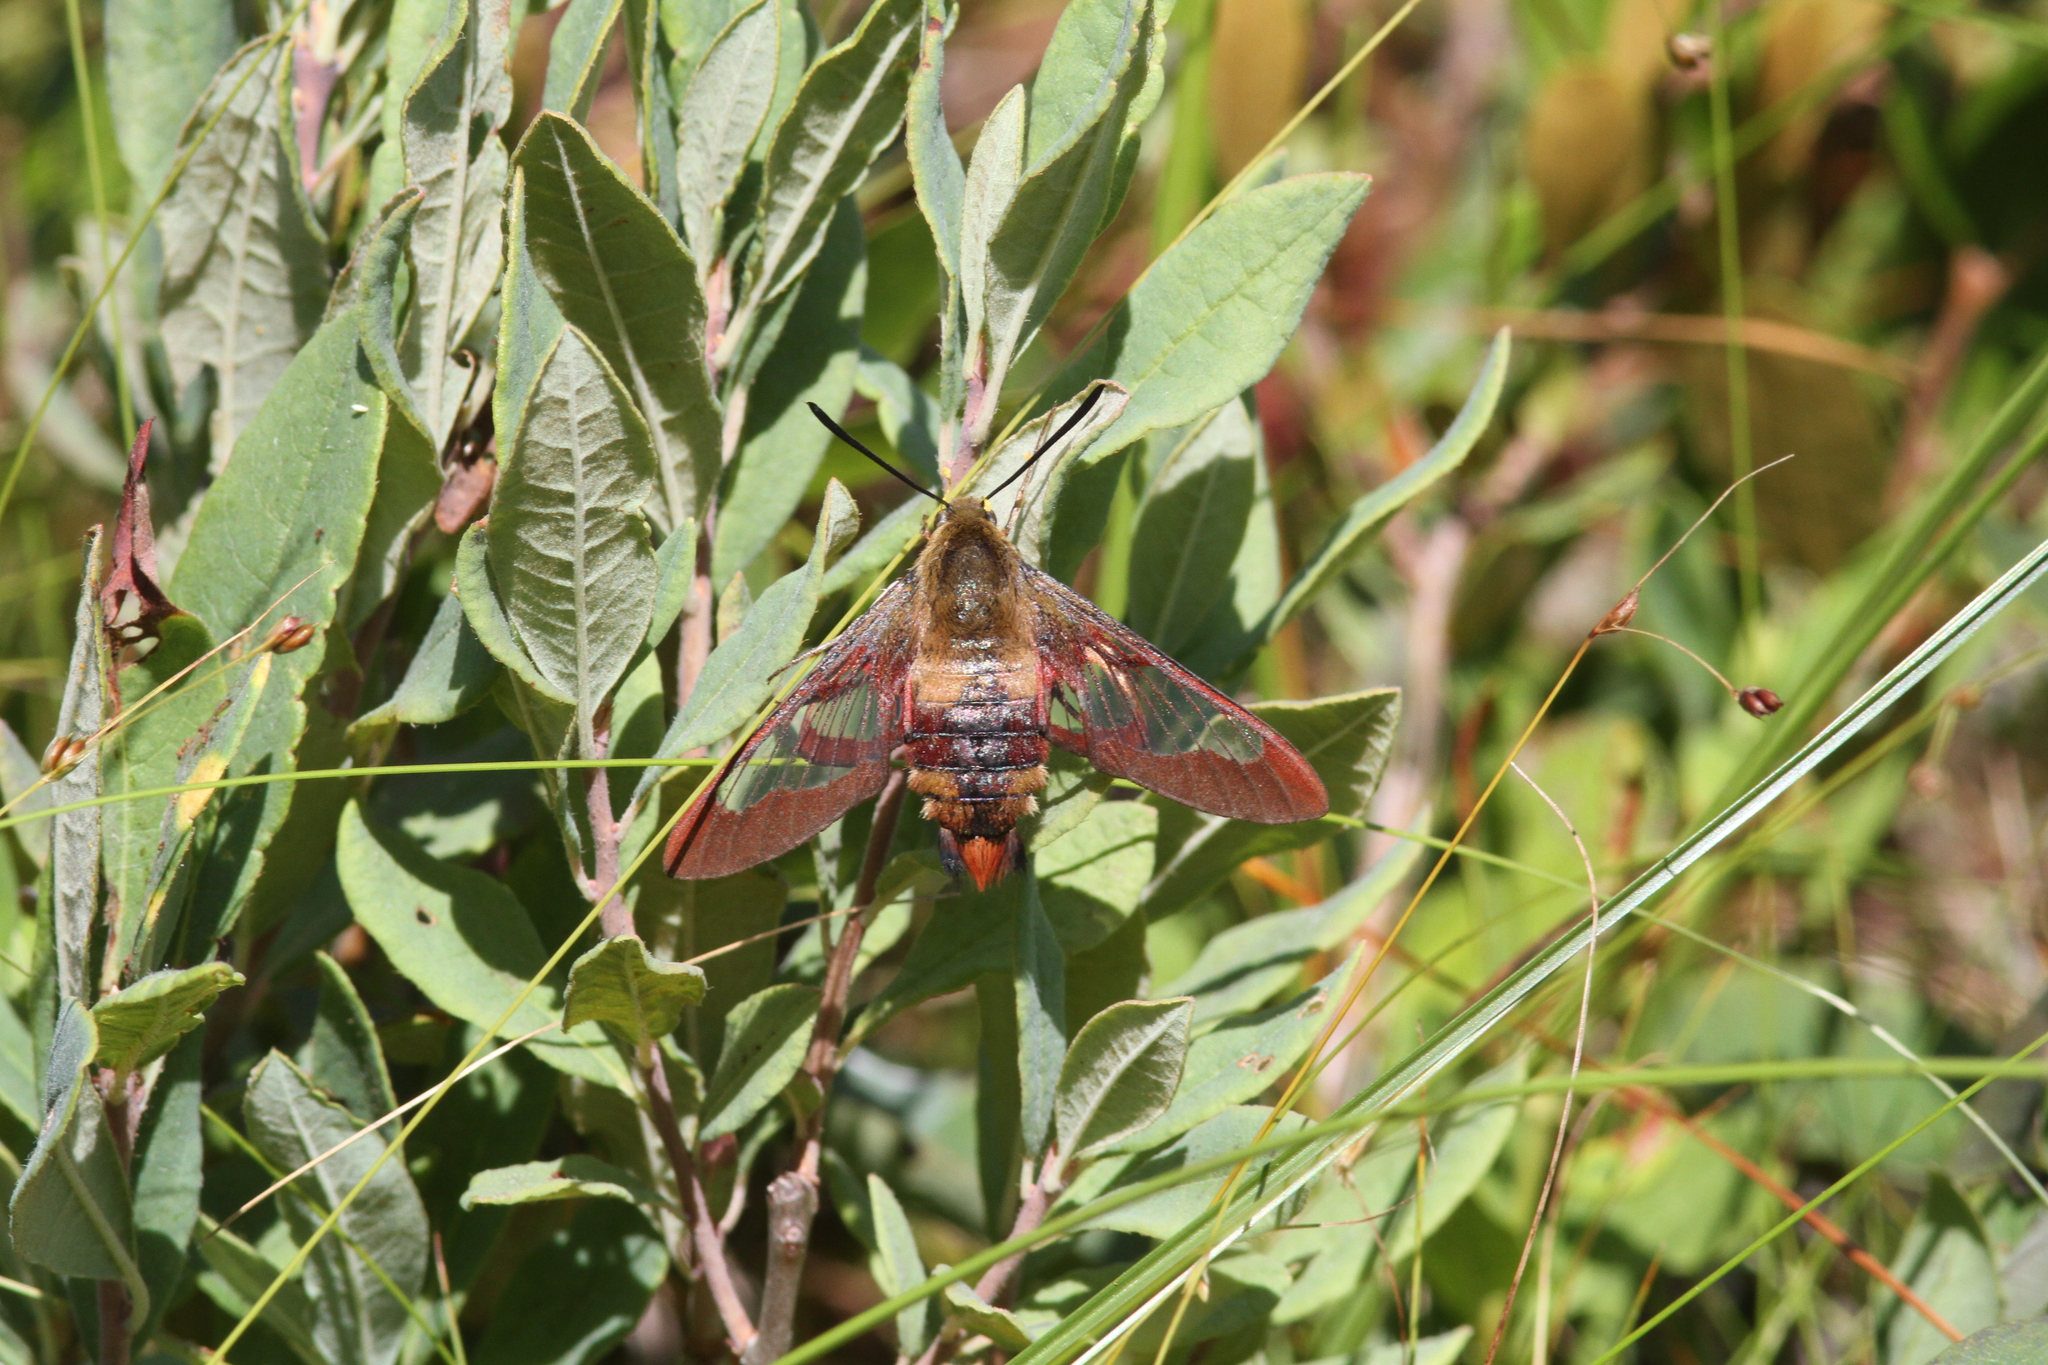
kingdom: Animalia
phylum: Arthropoda
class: Insecta
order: Lepidoptera
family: Sphingidae
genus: Hemaris
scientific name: Hemaris thysbe
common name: Common clear-wing
